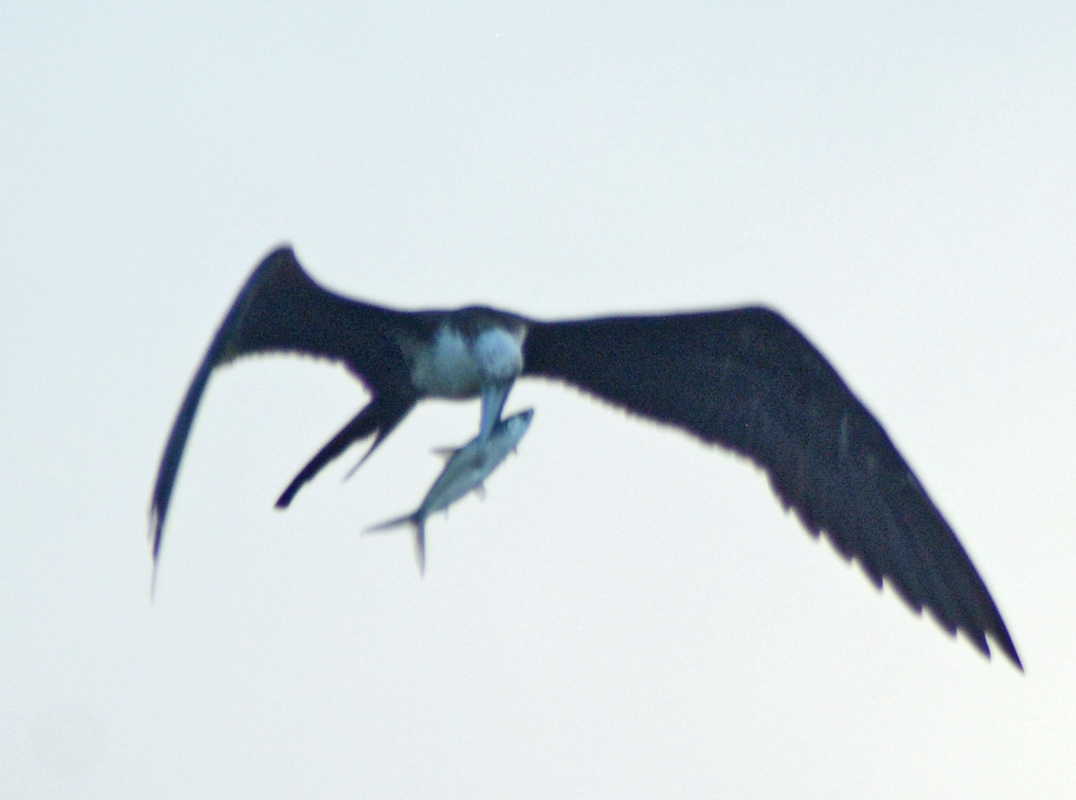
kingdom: Animalia
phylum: Chordata
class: Aves
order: Suliformes
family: Fregatidae
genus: Fregata
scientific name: Fregata magnificens
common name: Magnificent frigatebird
